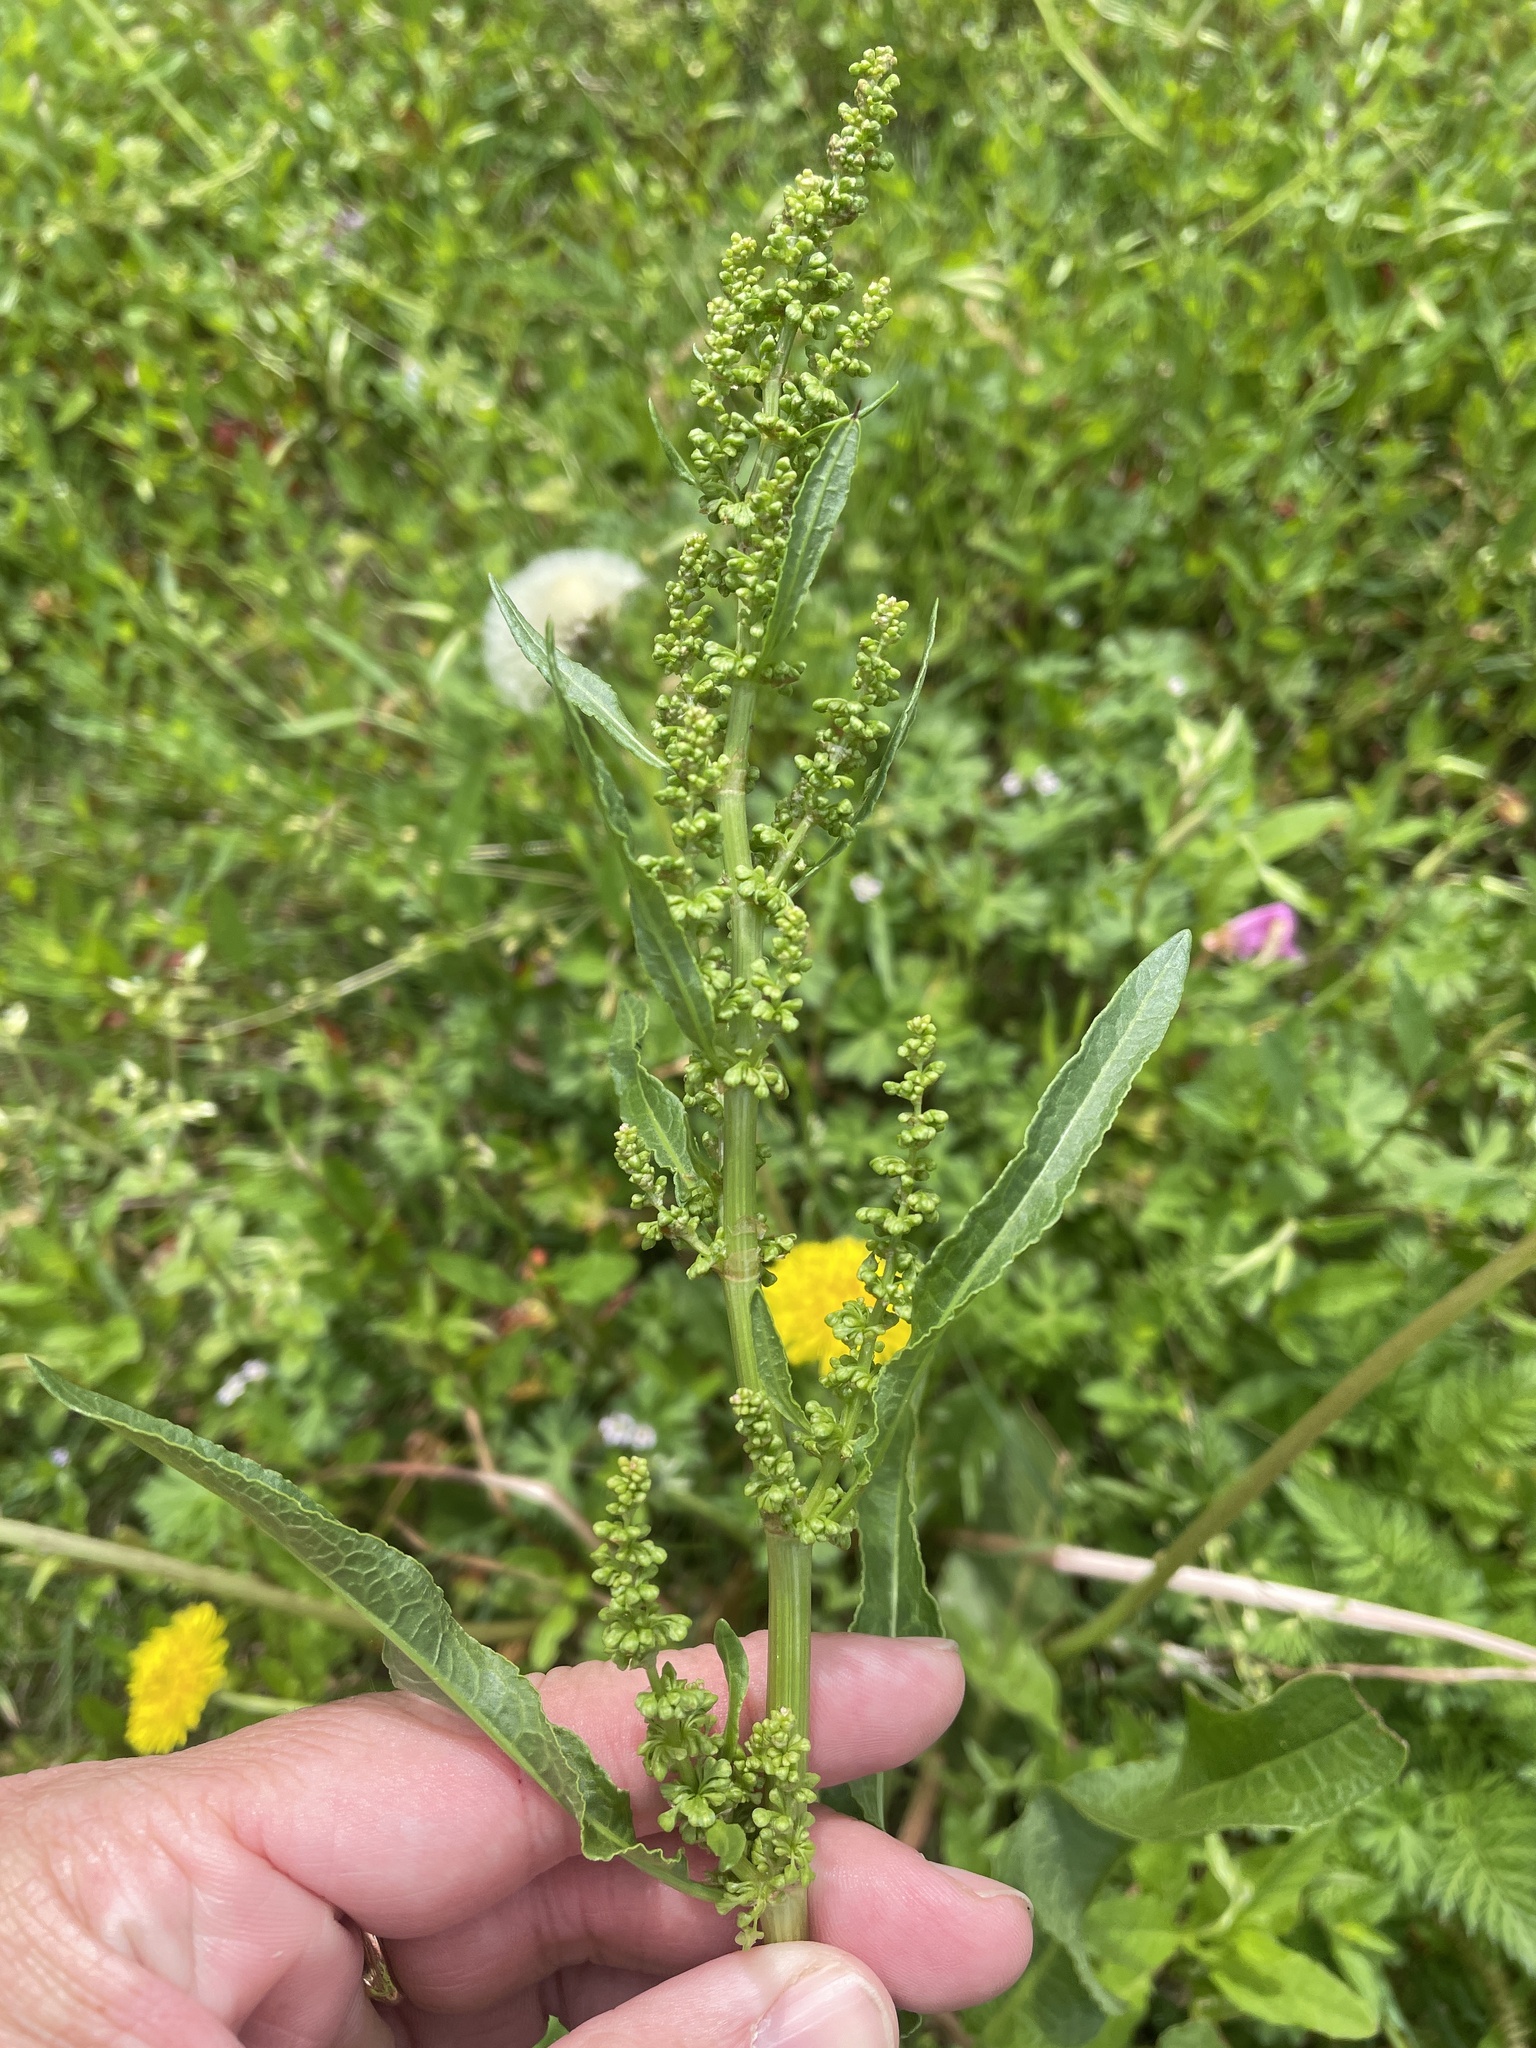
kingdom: Plantae
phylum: Tracheophyta
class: Magnoliopsida
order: Caryophyllales
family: Polygonaceae
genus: Rumex
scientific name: Rumex crispus
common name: Curled dock
